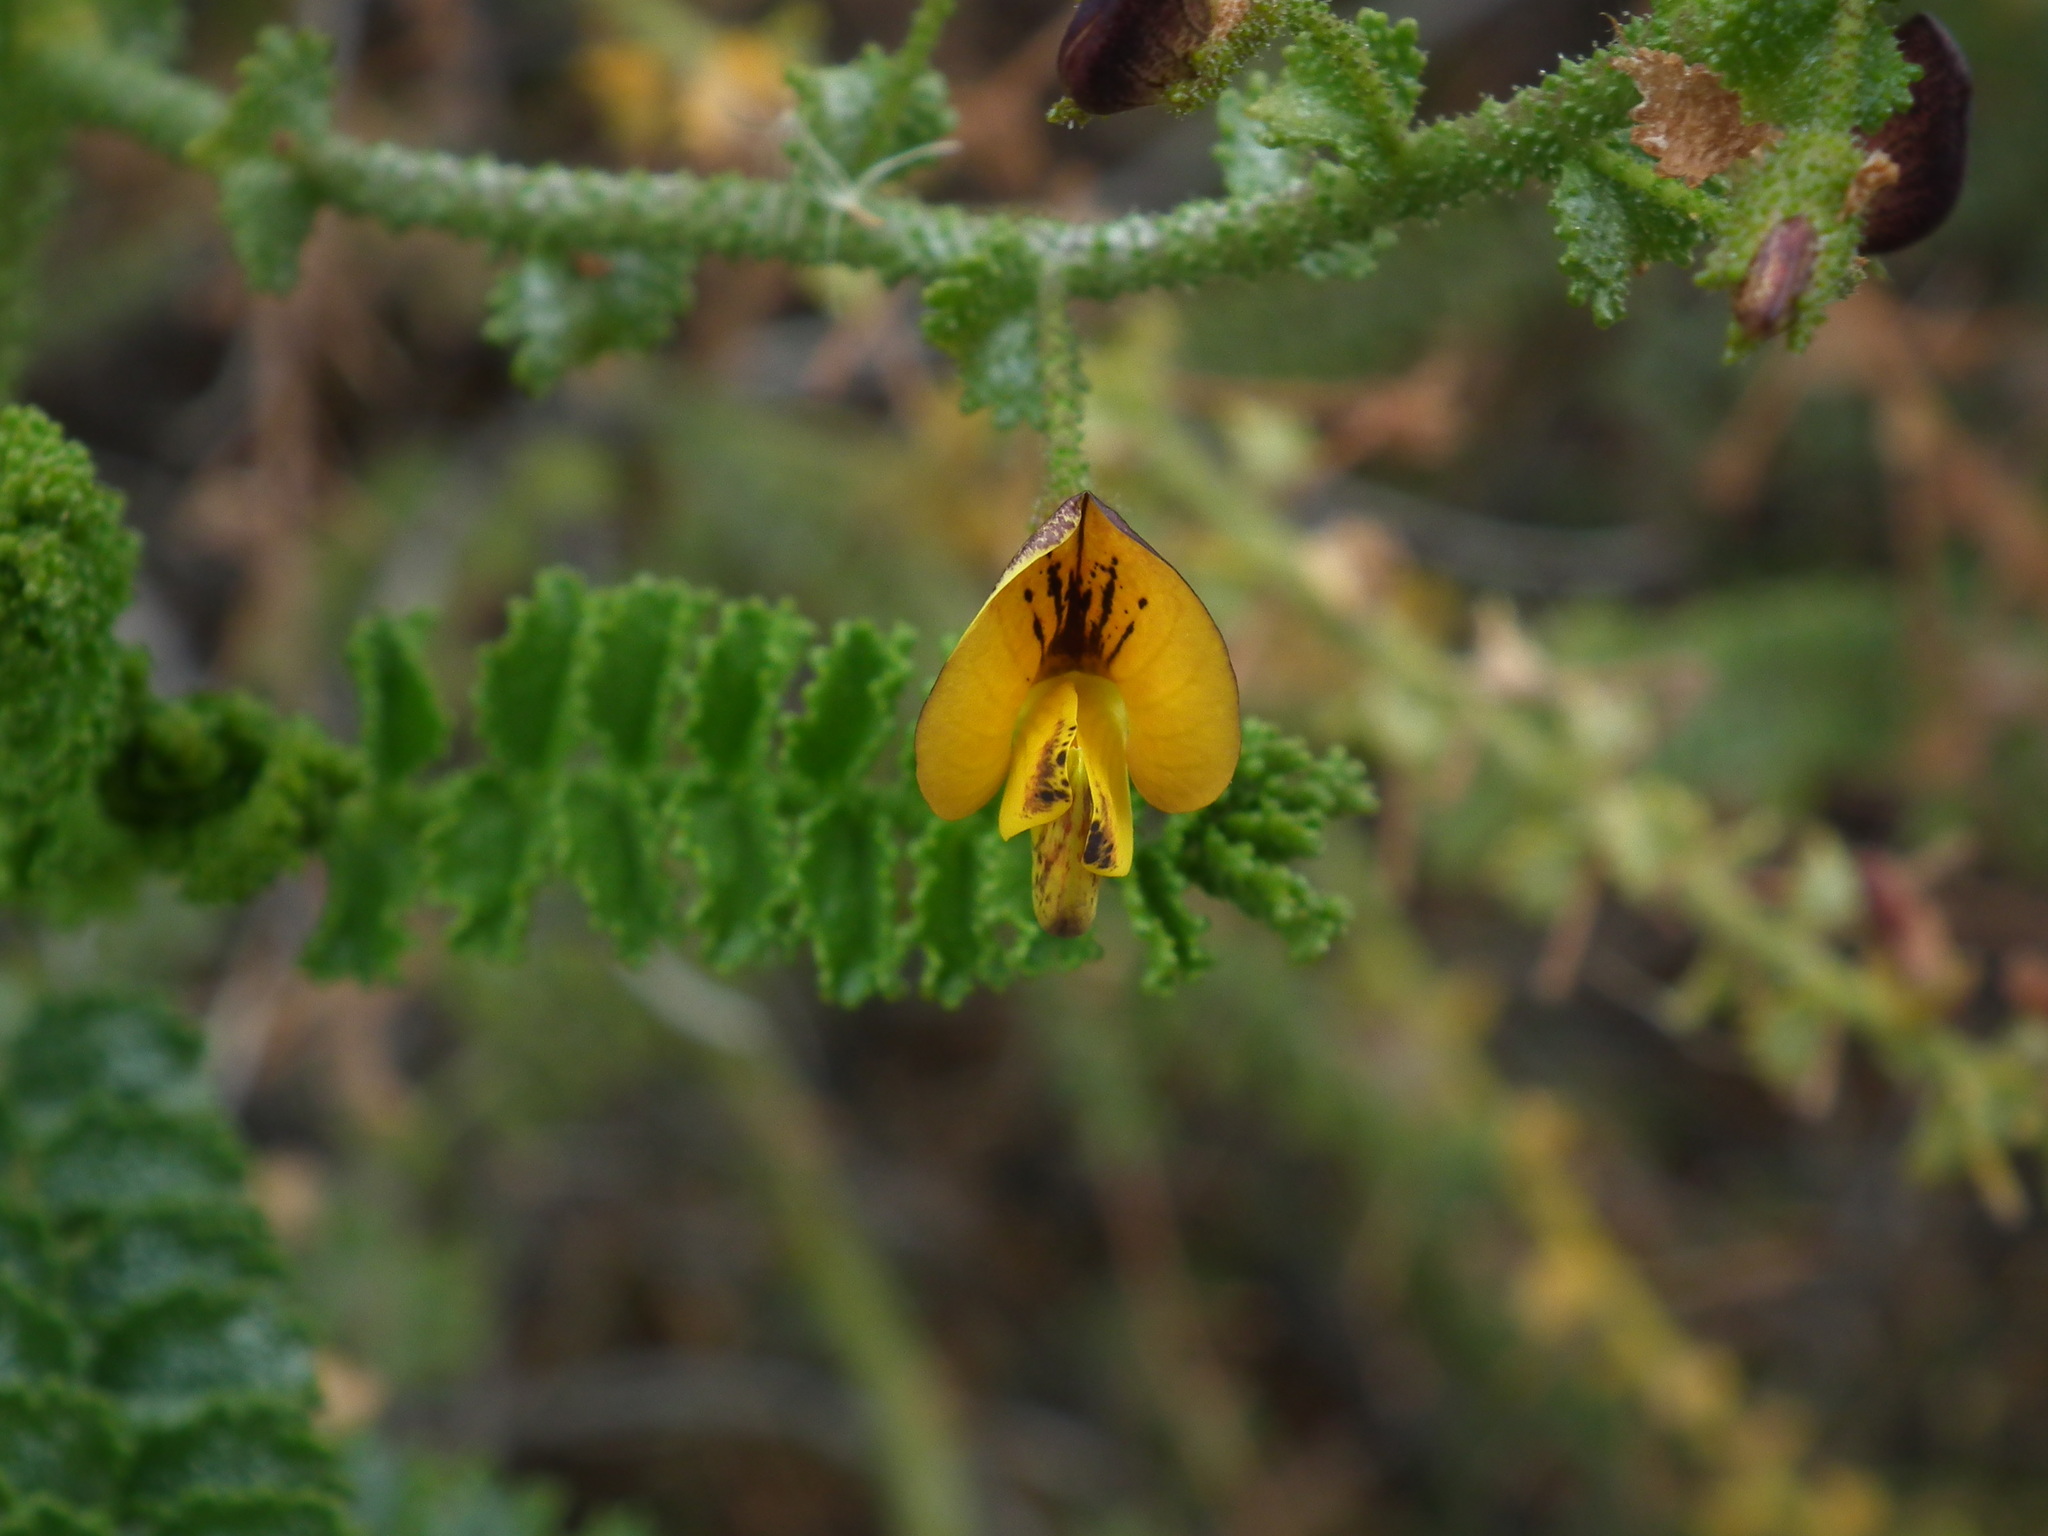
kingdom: Plantae
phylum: Tracheophyta
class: Magnoliopsida
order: Fabales
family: Fabaceae
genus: Adesmia
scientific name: Adesmia verrucosa
